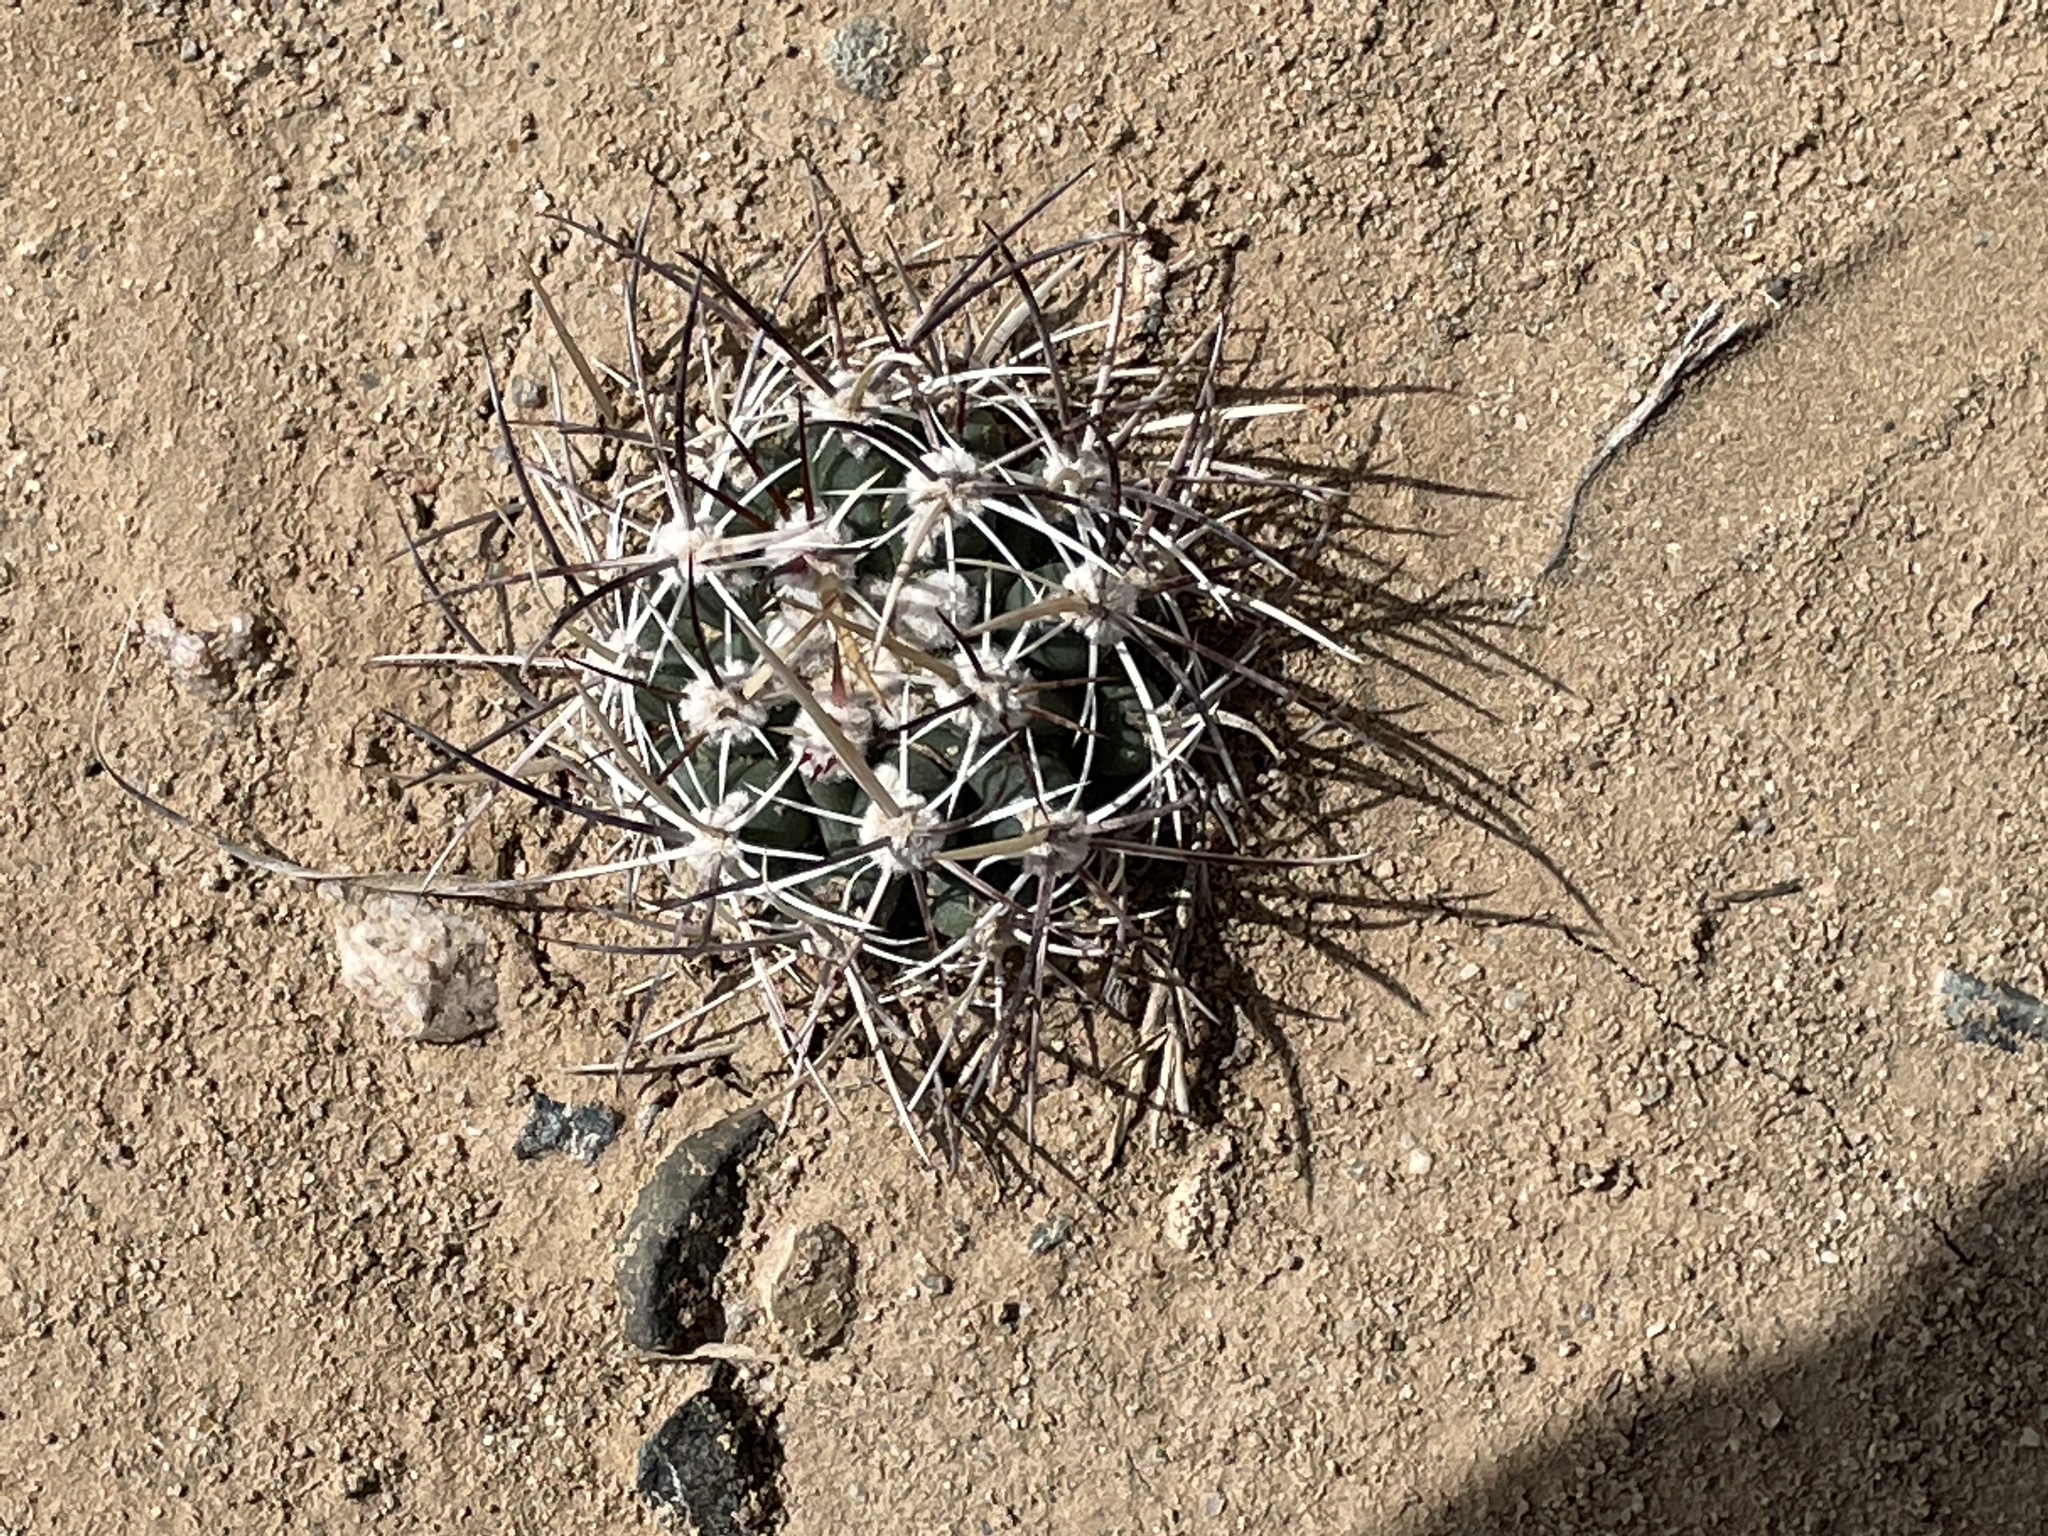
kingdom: Plantae
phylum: Tracheophyta
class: Magnoliopsida
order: Caryophyllales
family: Cactaceae
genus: Sclerocactus
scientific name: Sclerocactus cloverae
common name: Clover's eagle-claw cactus
